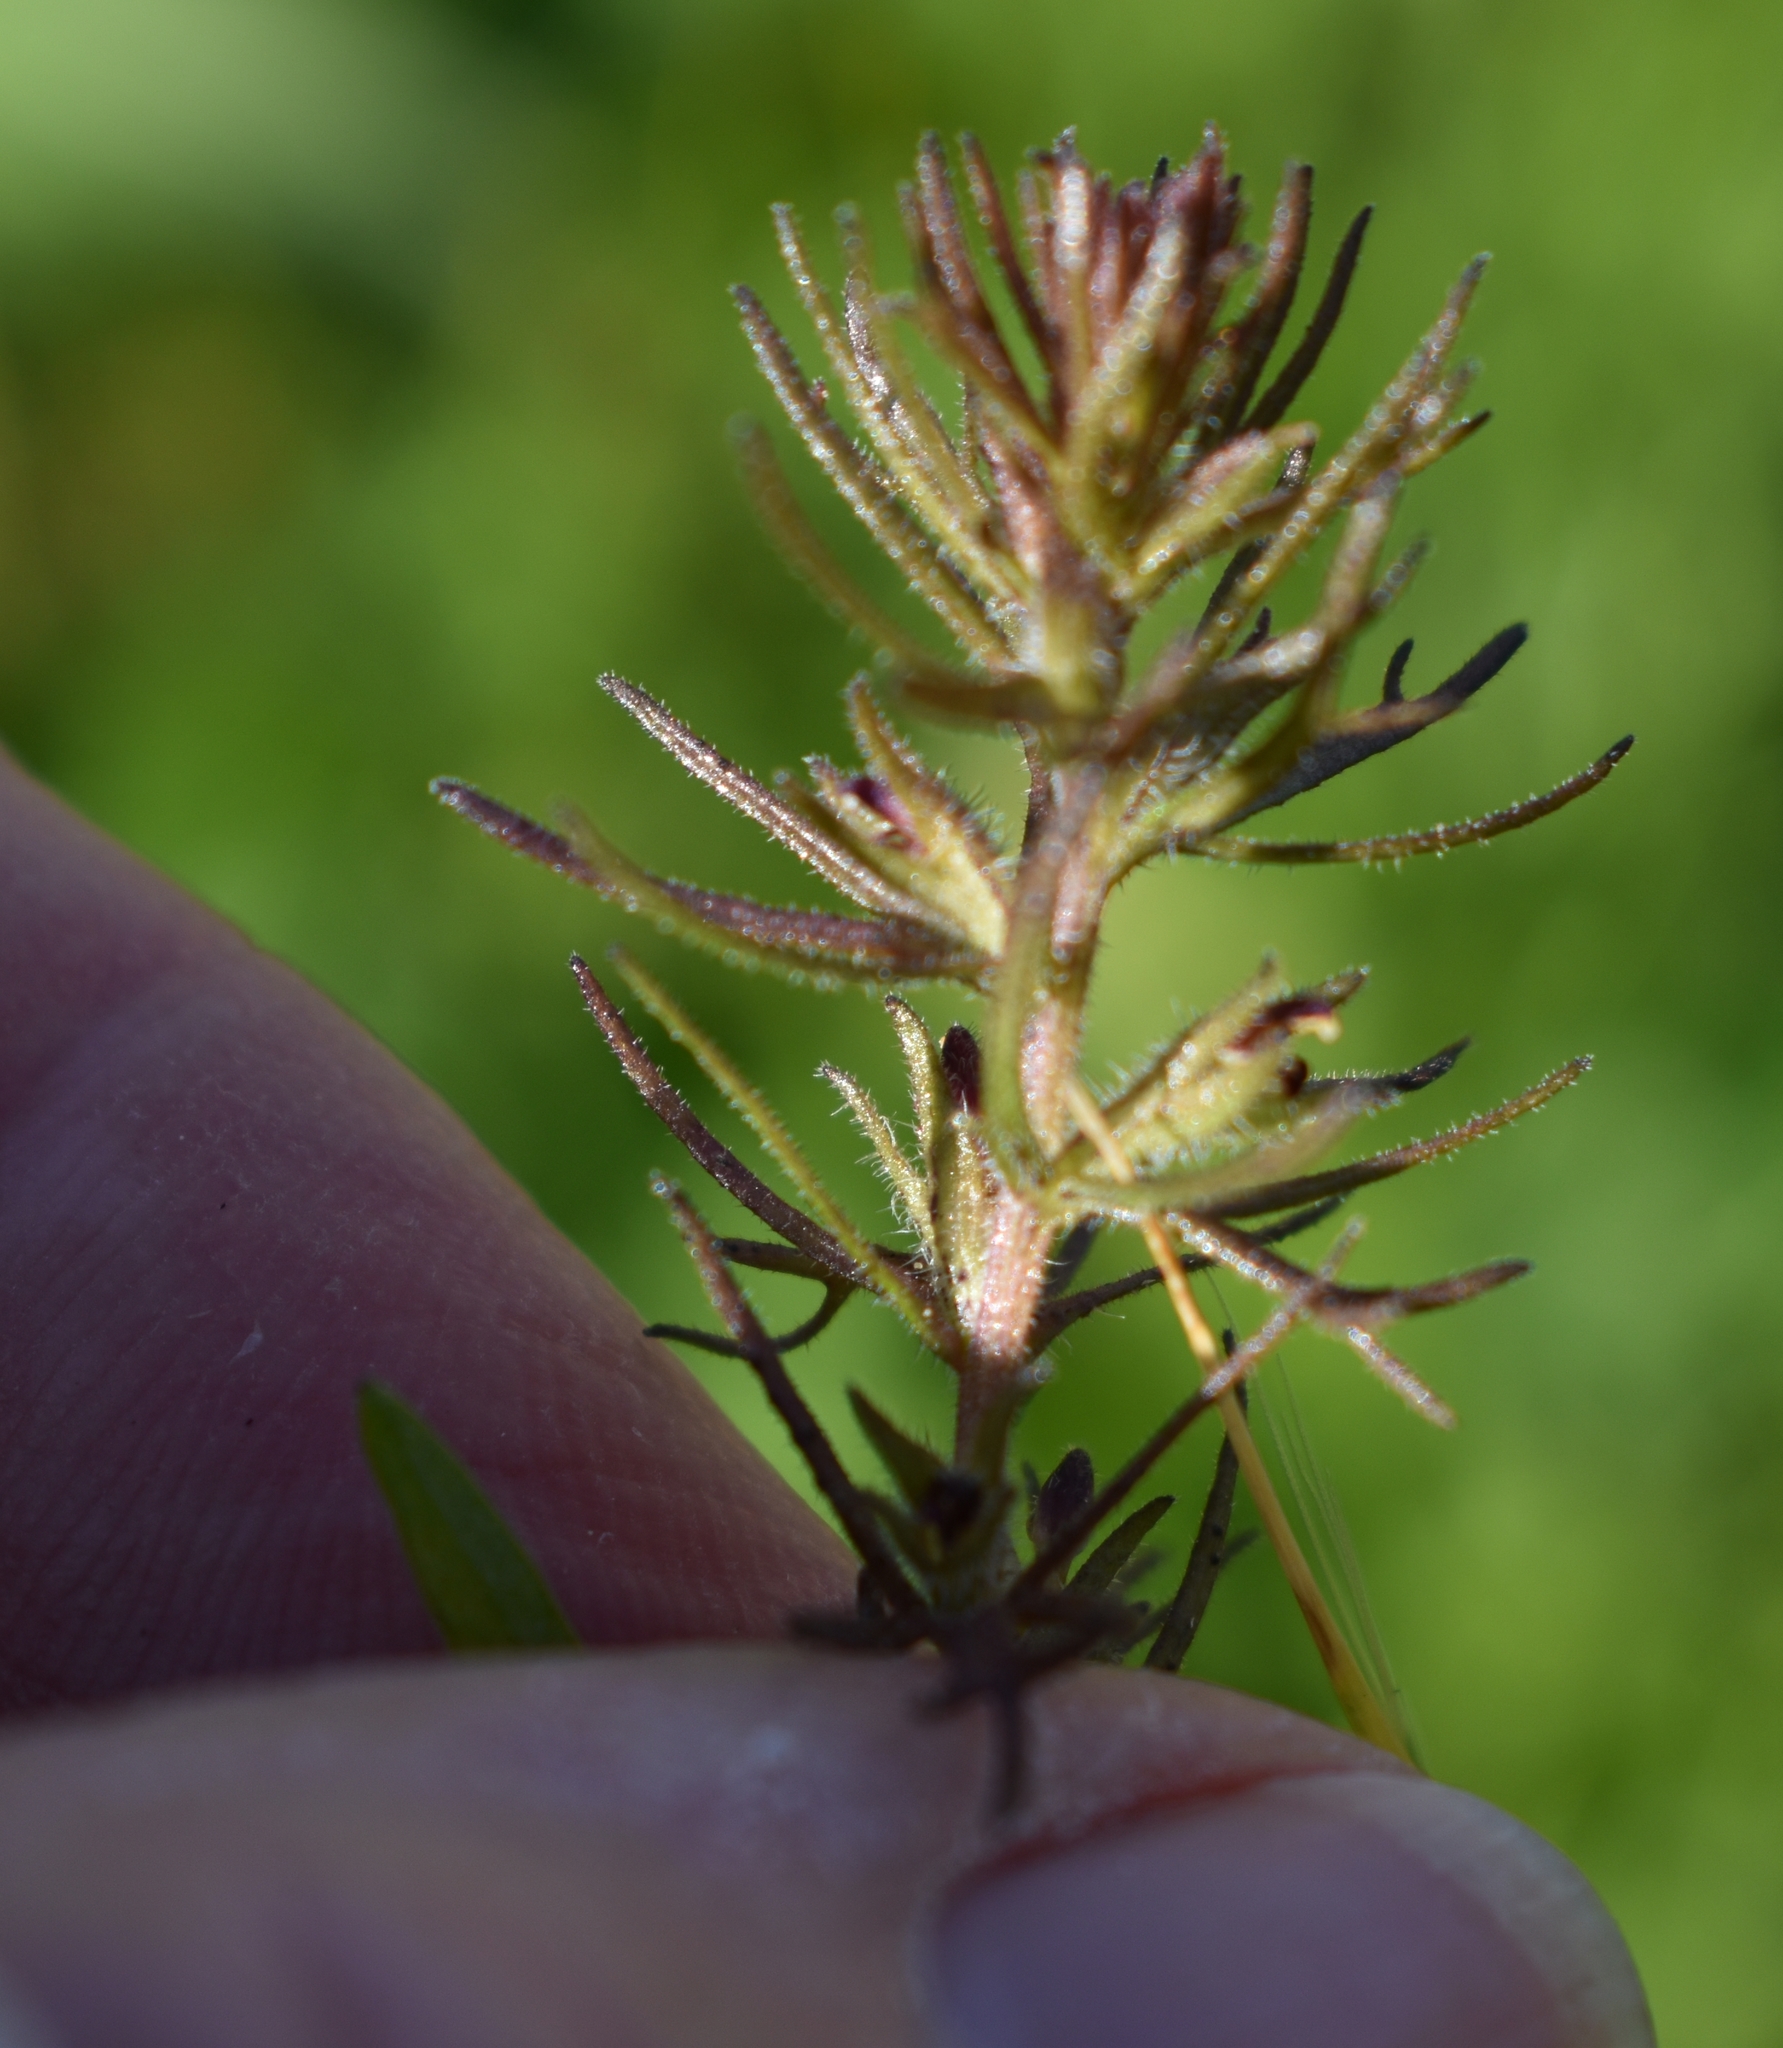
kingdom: Plantae
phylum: Tracheophyta
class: Magnoliopsida
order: Lamiales
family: Orobanchaceae
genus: Triphysaria
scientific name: Triphysaria pusilla
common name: Dwarf false owl-clover
